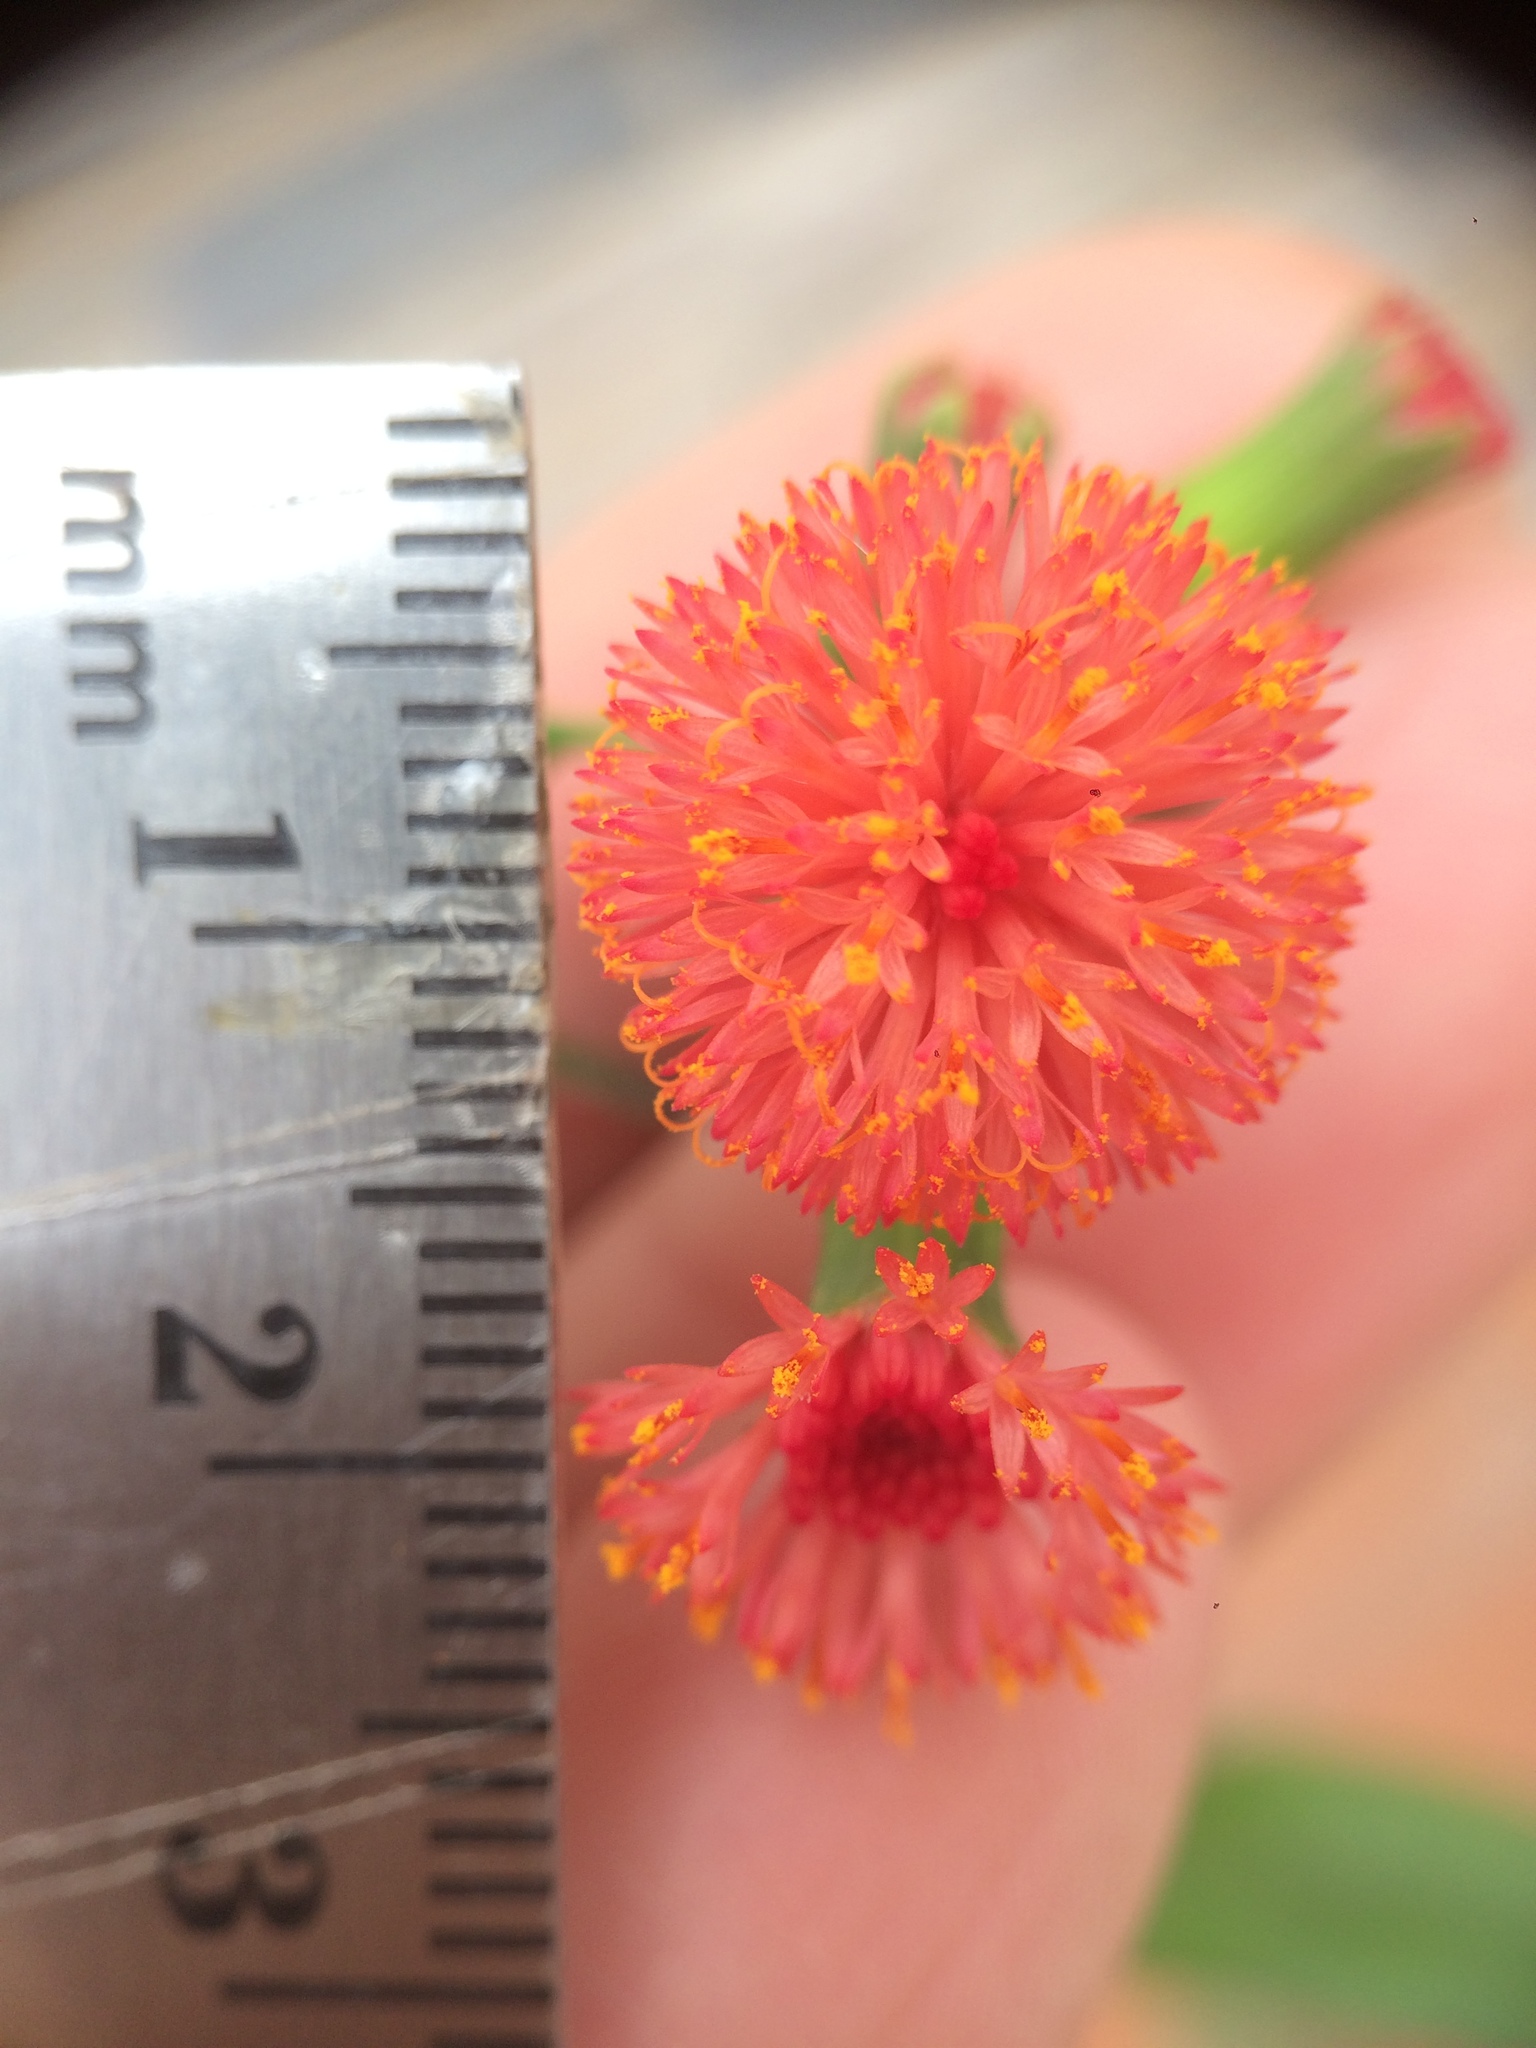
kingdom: Plantae
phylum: Tracheophyta
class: Magnoliopsida
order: Asterales
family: Asteraceae
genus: Emilia
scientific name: Emilia fosbergii
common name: Florida tasselflower
